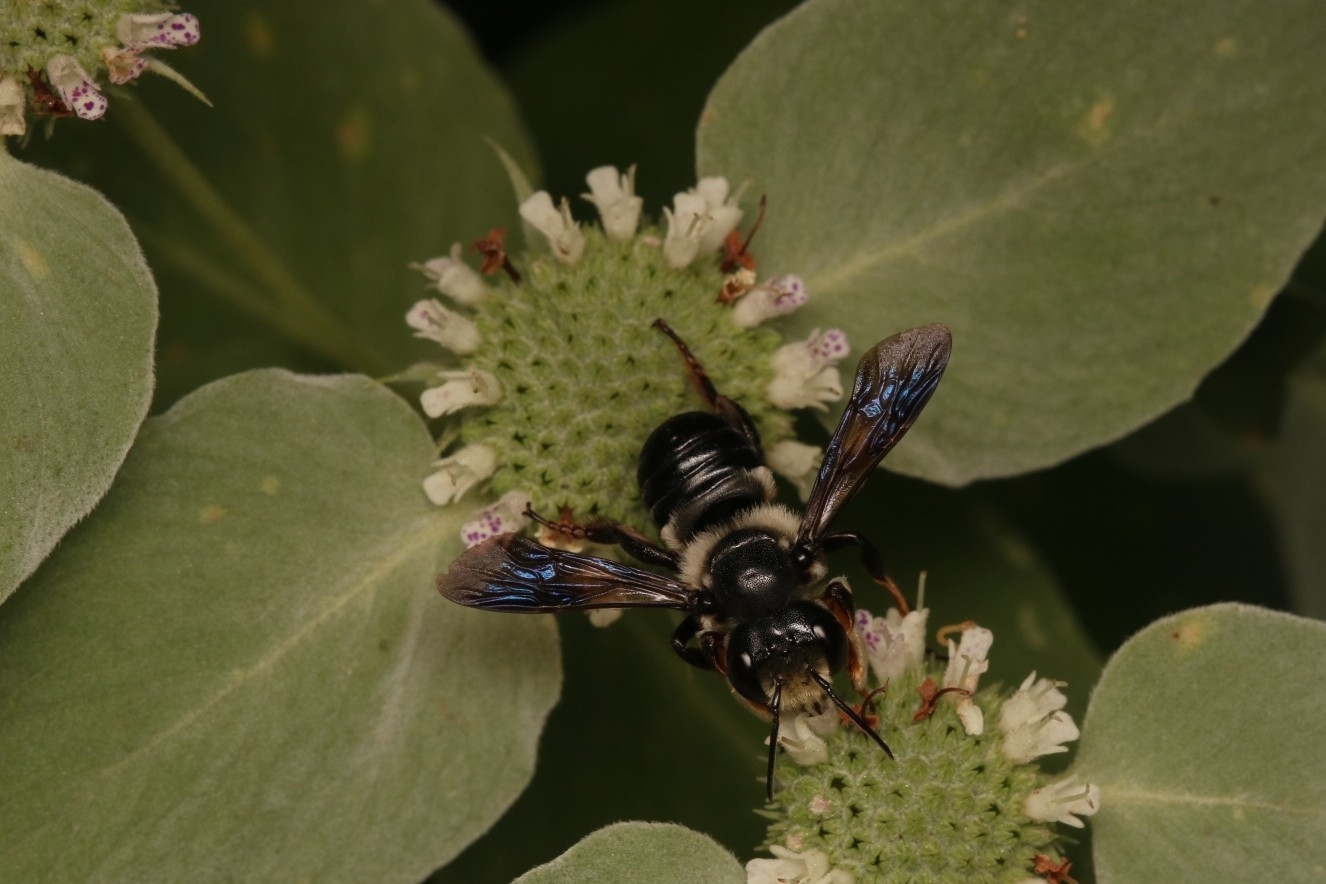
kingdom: Animalia
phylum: Arthropoda
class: Insecta
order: Hymenoptera
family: Megachilidae
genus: Megachile
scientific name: Megachile xylocopoides
